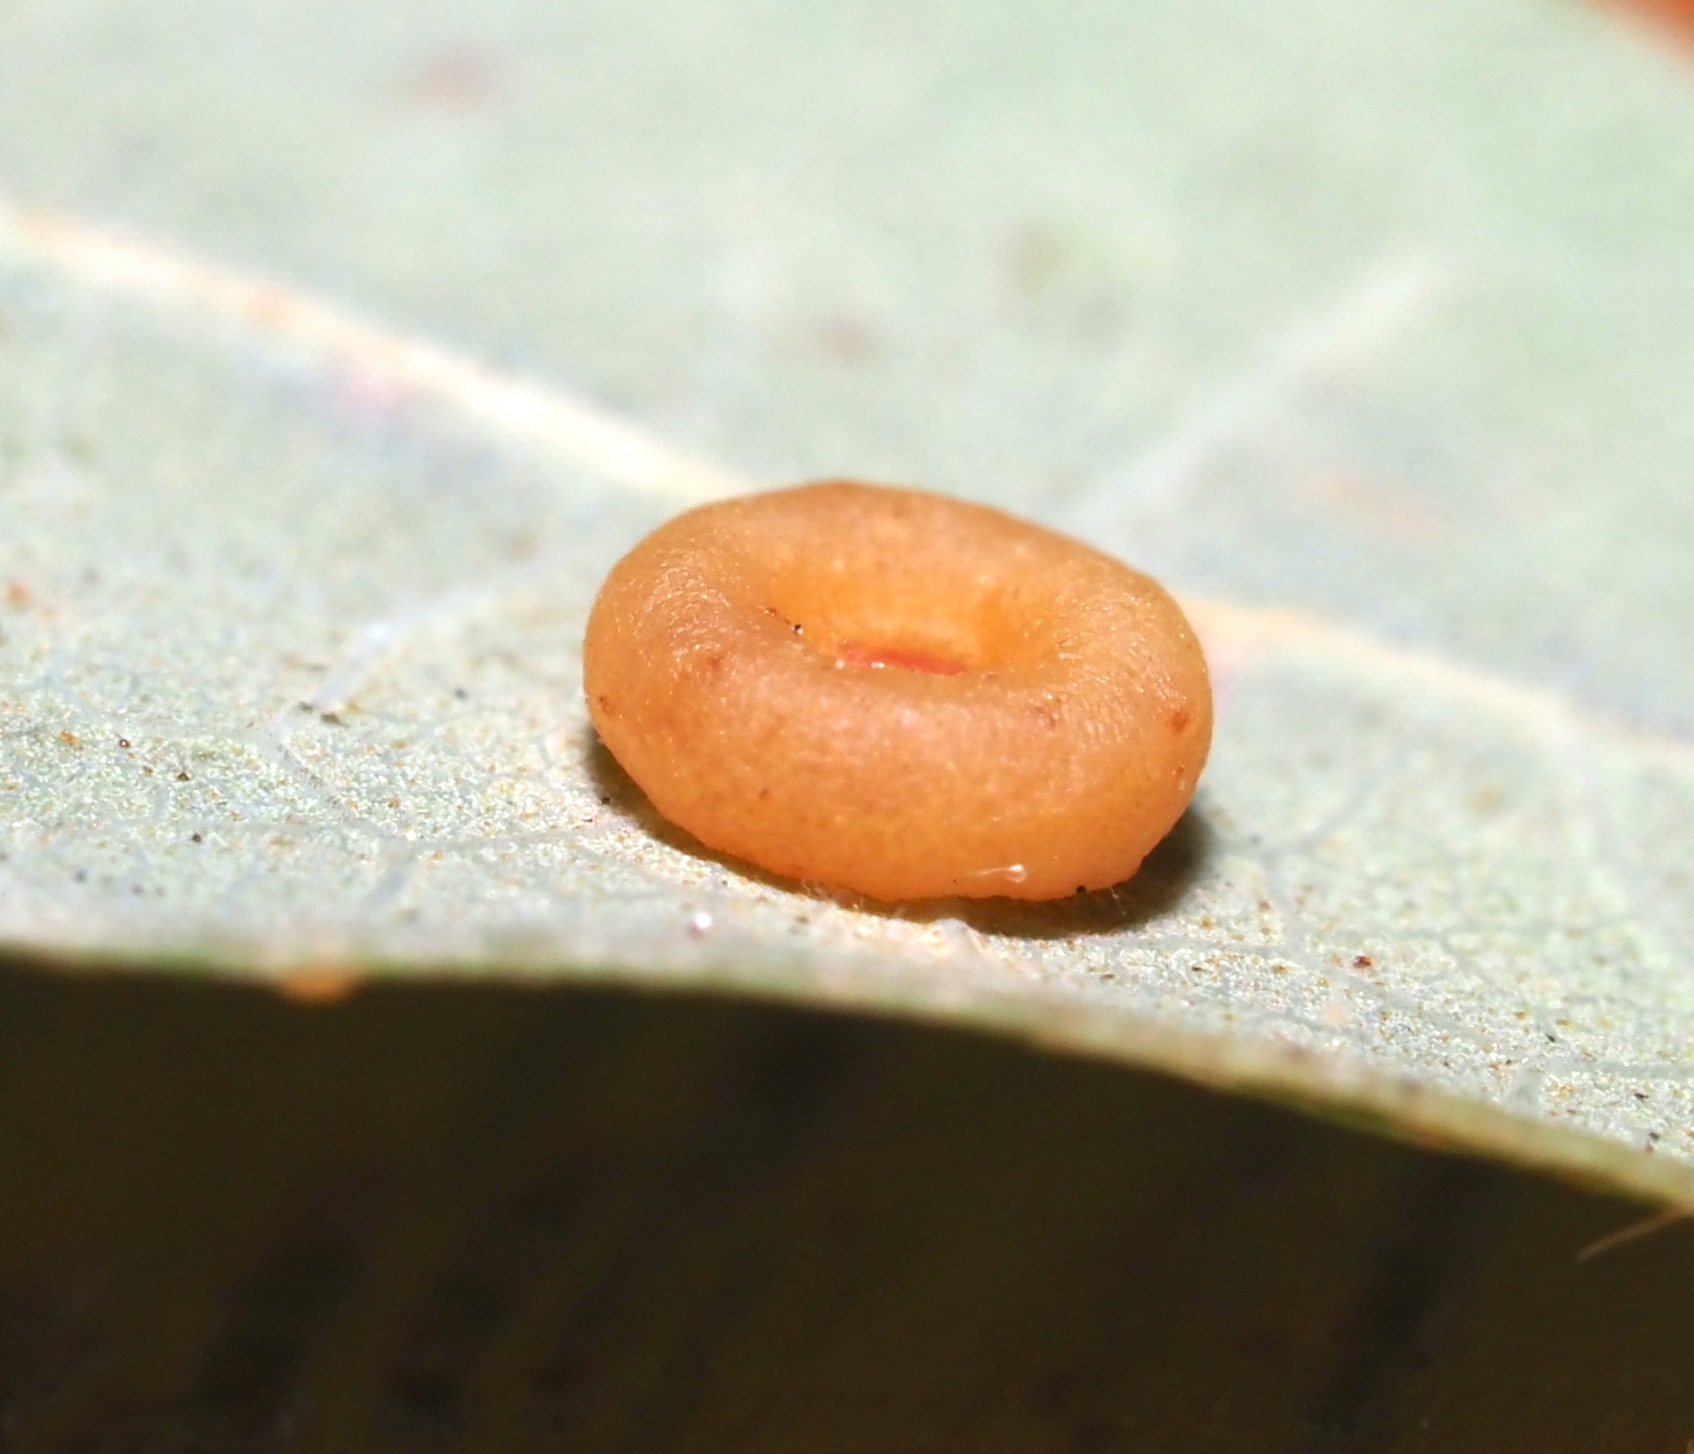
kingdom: Animalia
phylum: Arthropoda
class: Insecta
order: Hymenoptera
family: Cynipidae
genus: Andricus
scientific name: Andricus
